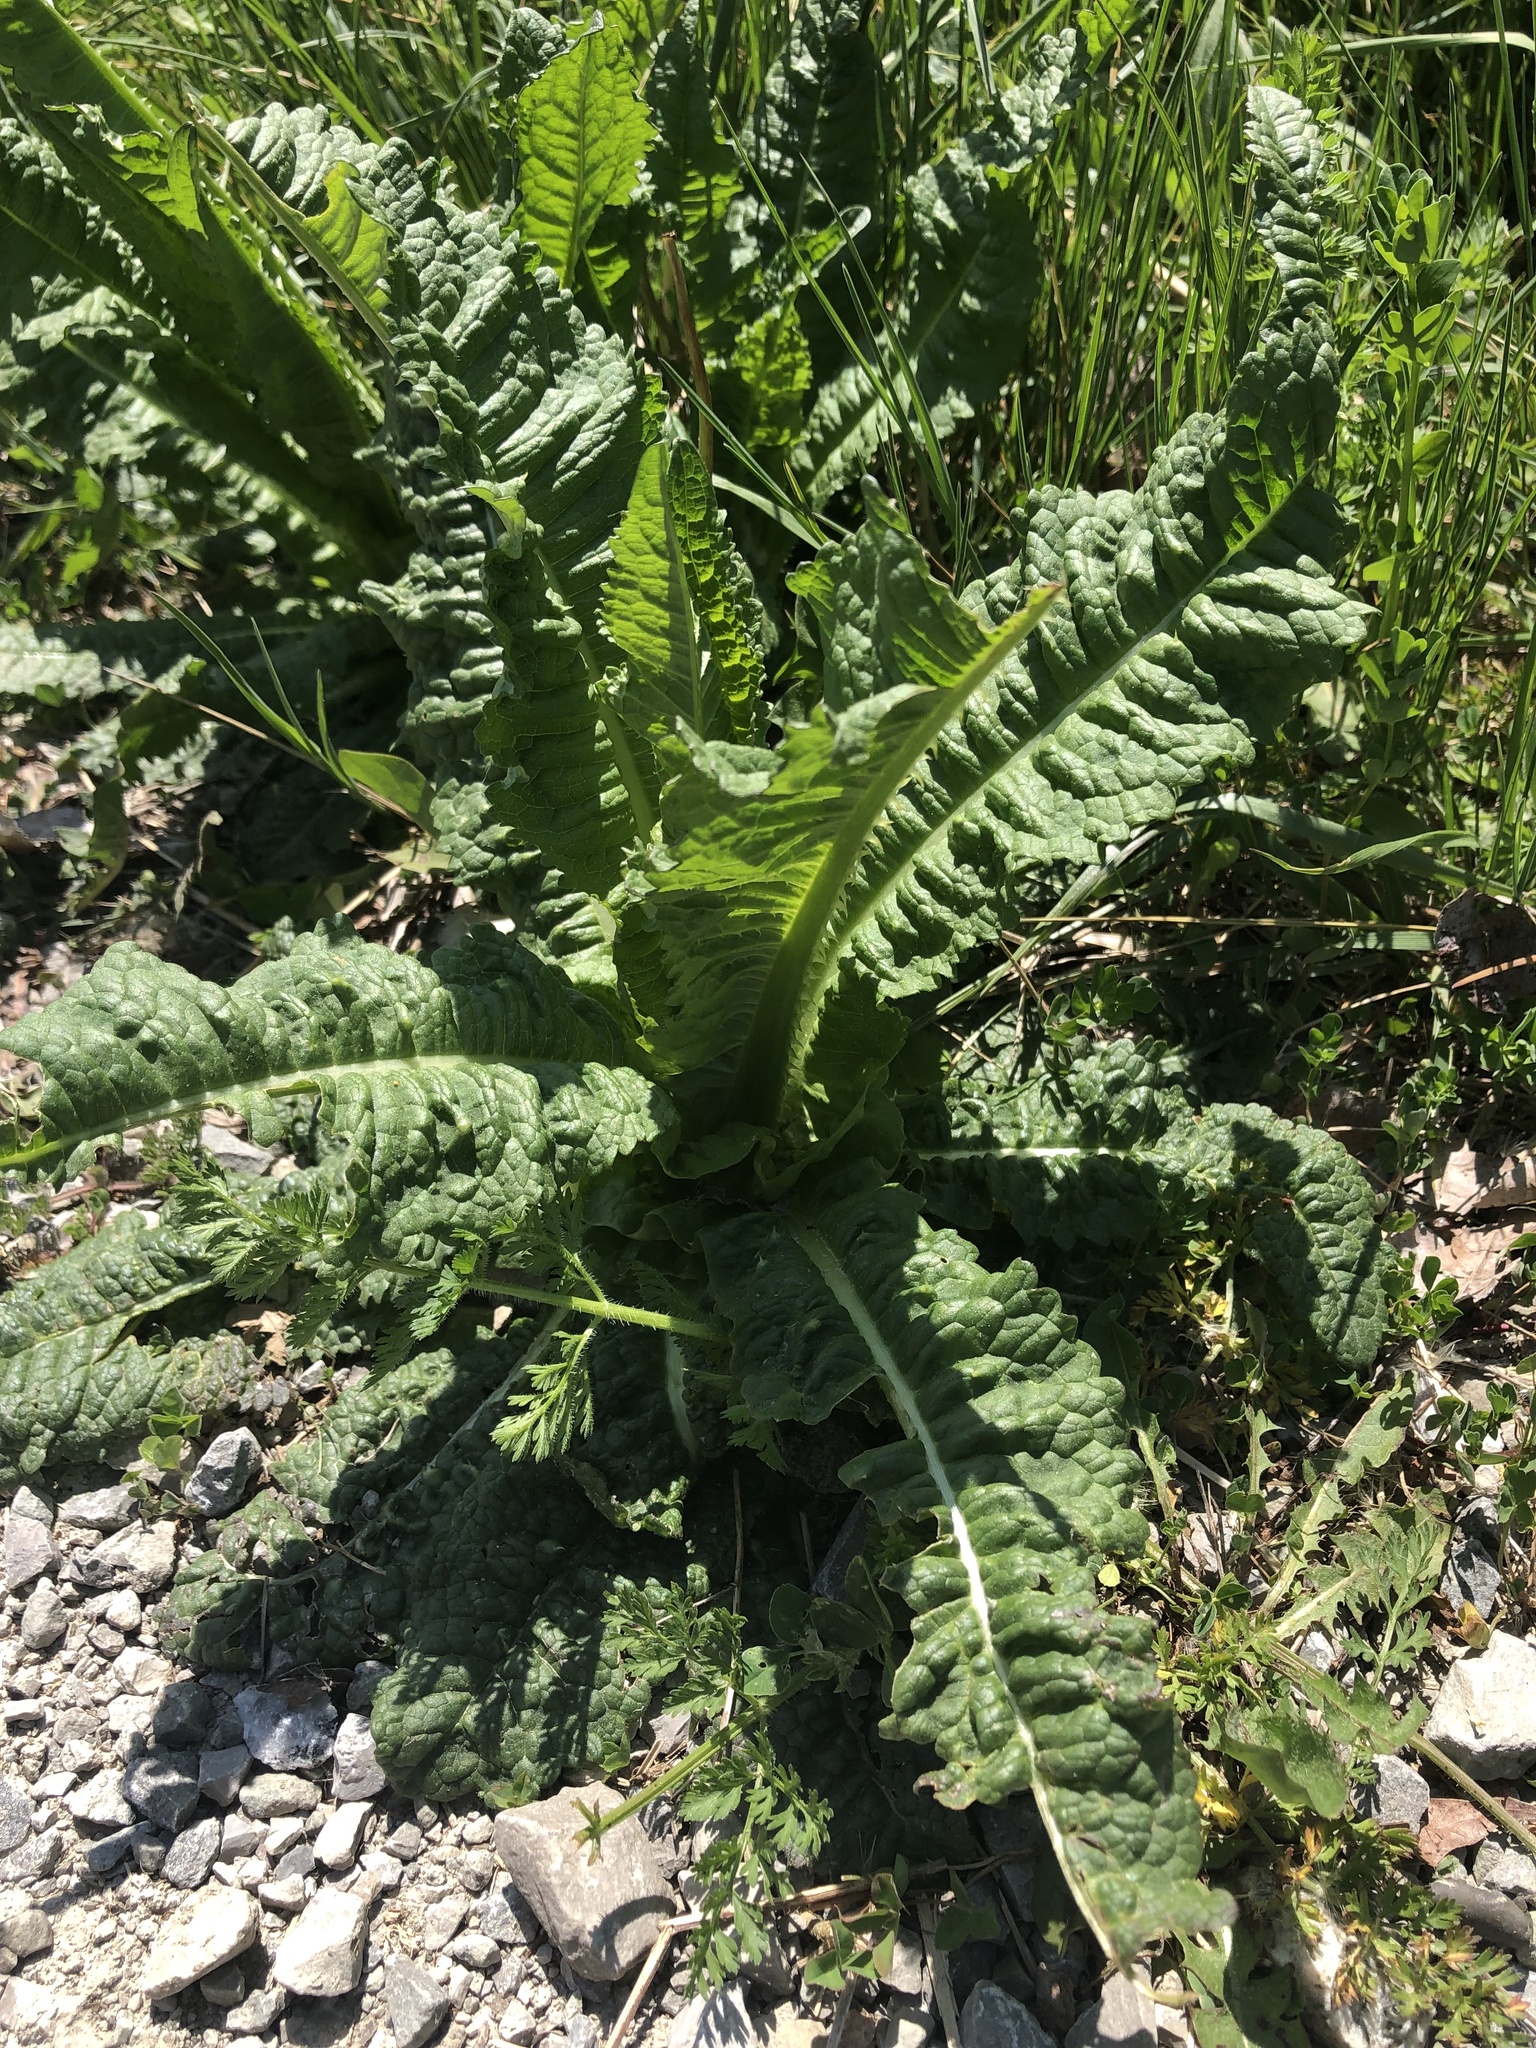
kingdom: Plantae
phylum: Tracheophyta
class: Magnoliopsida
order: Dipsacales
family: Caprifoliaceae
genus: Dipsacus
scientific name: Dipsacus fullonum
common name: Teasel
